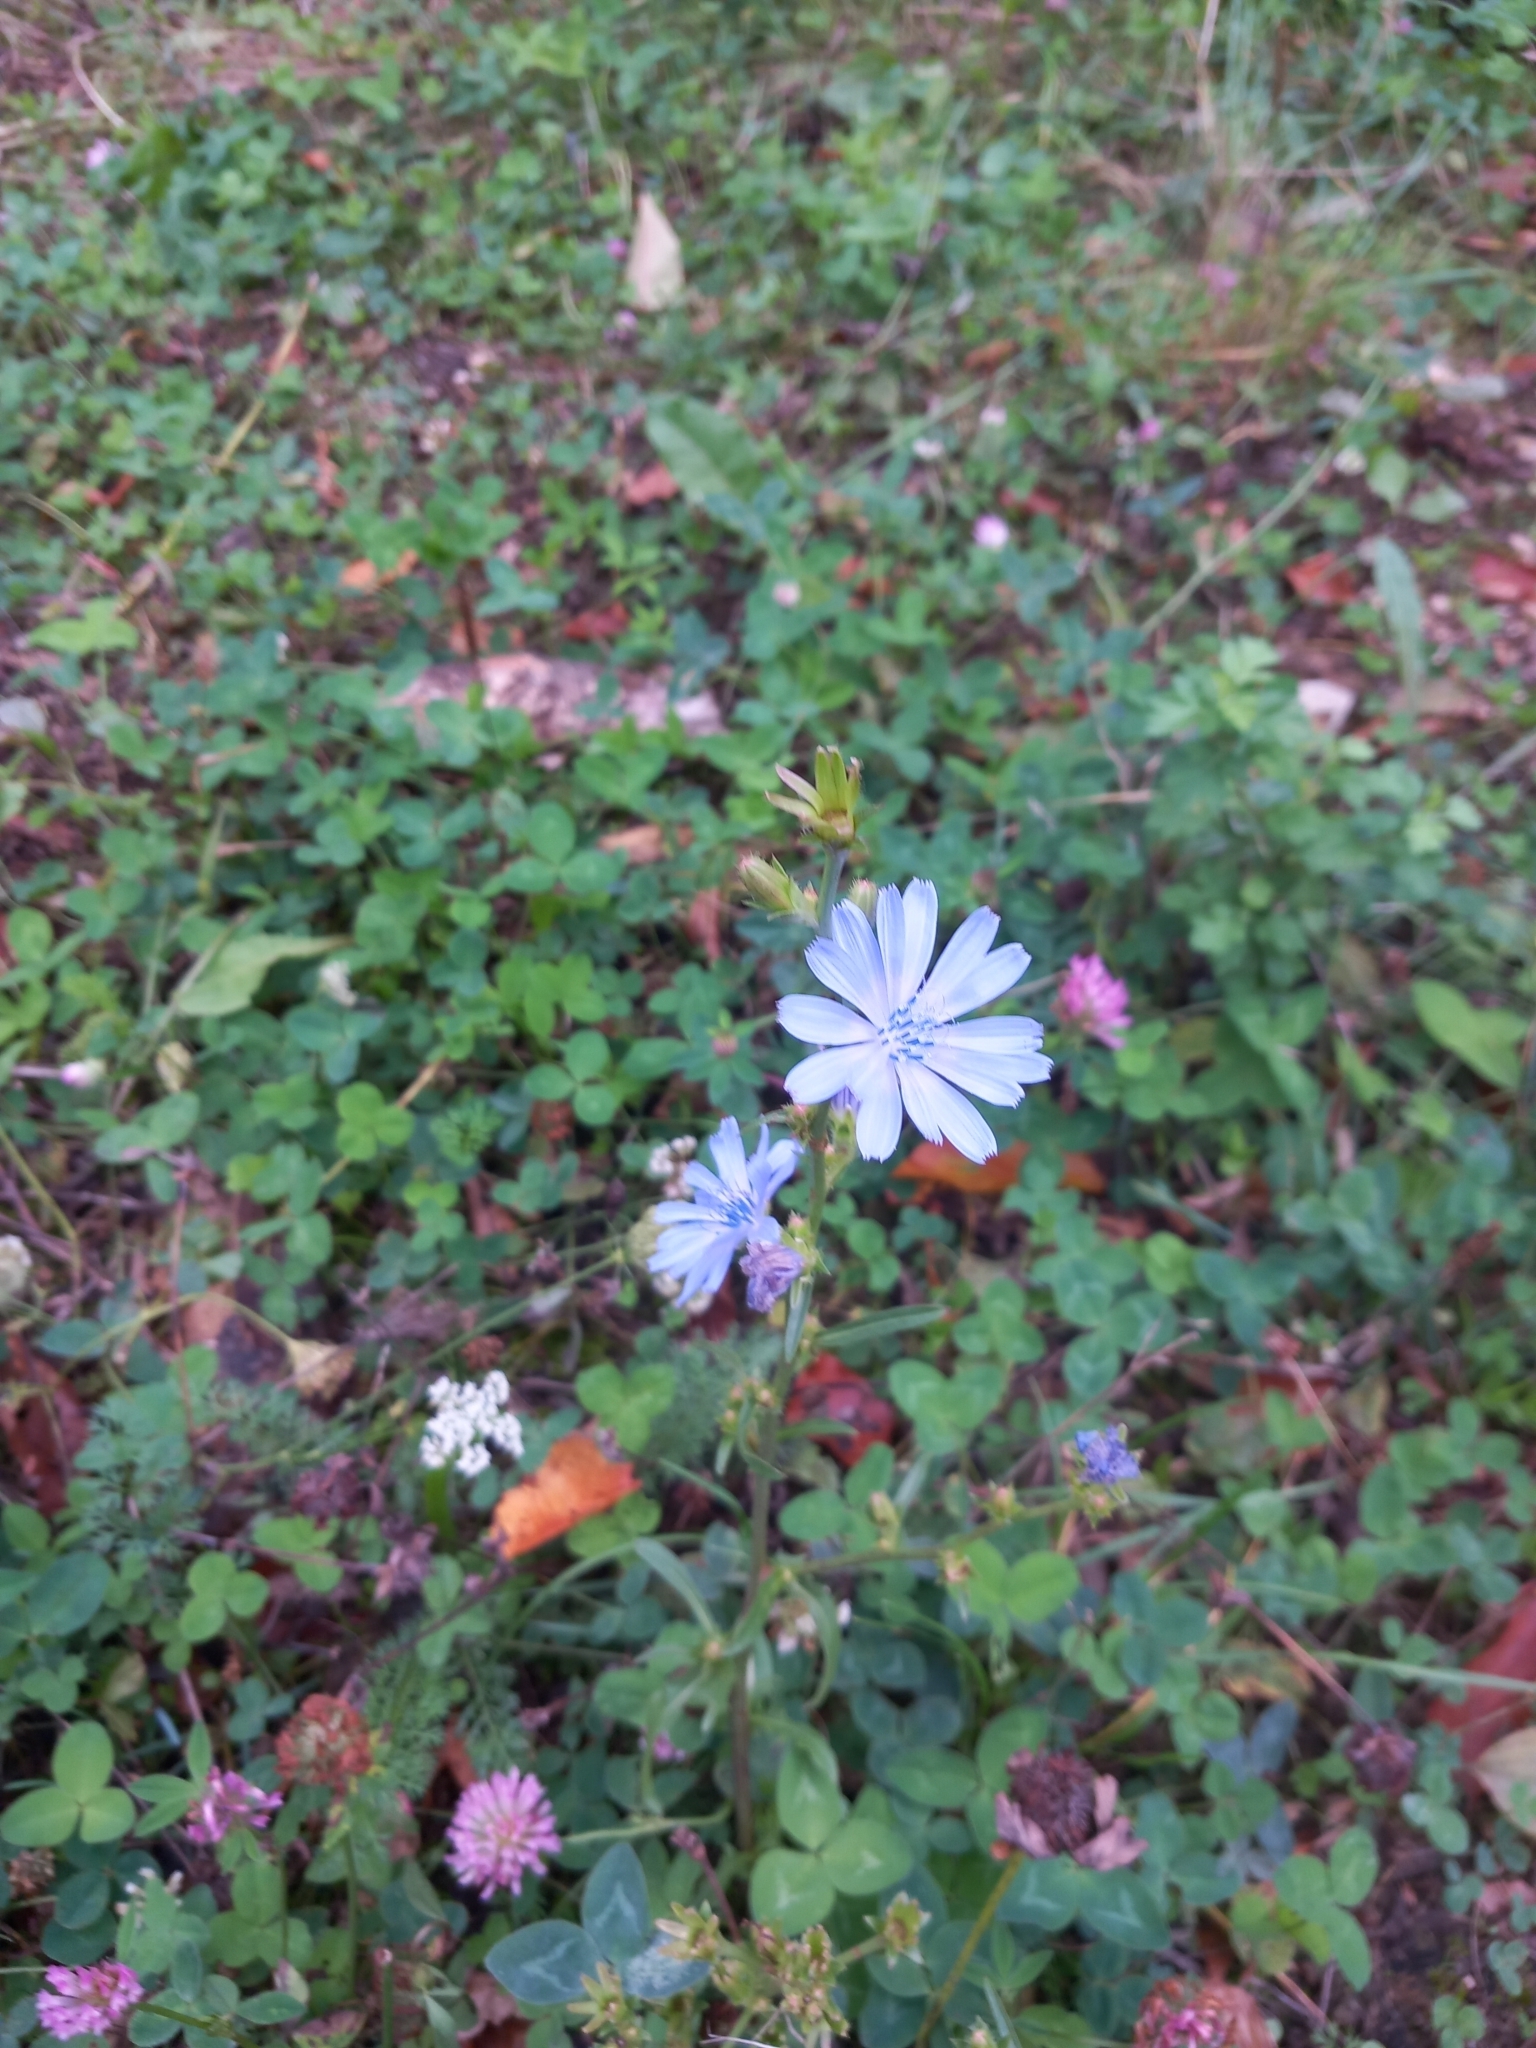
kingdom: Plantae
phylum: Tracheophyta
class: Magnoliopsida
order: Asterales
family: Asteraceae
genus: Cichorium
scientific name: Cichorium intybus
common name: Chicory
